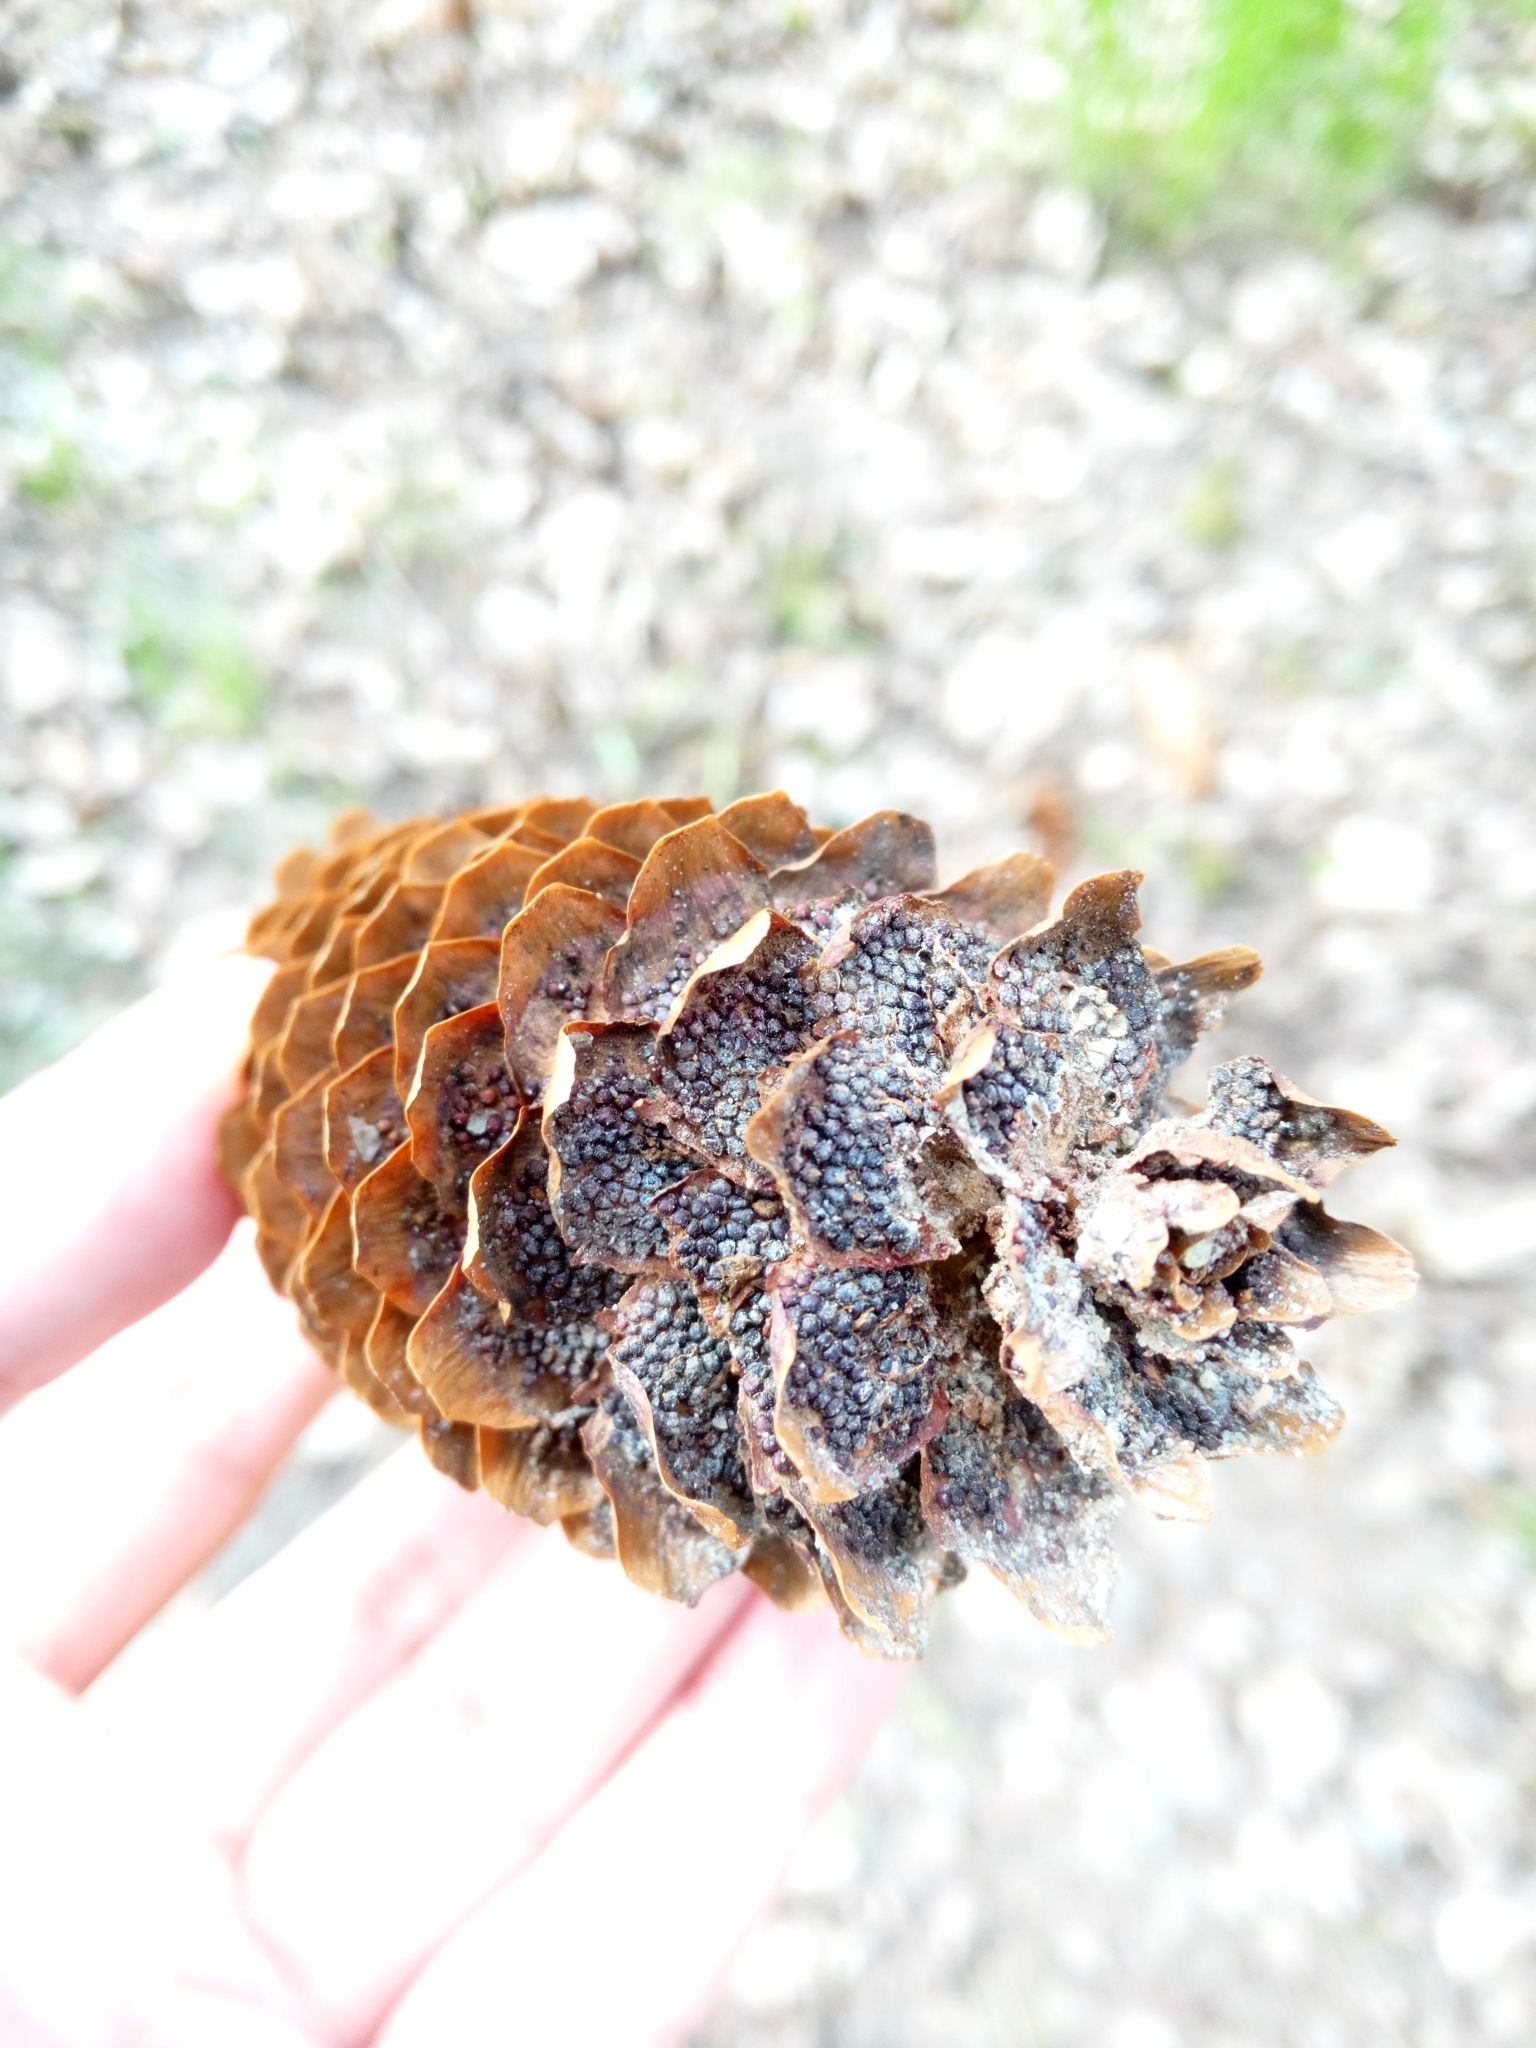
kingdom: Fungi
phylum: Basidiomycota
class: Pucciniomycetes
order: Pucciniales
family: Pucciniastraceae
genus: Thekopsora
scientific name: Thekopsora areolata
